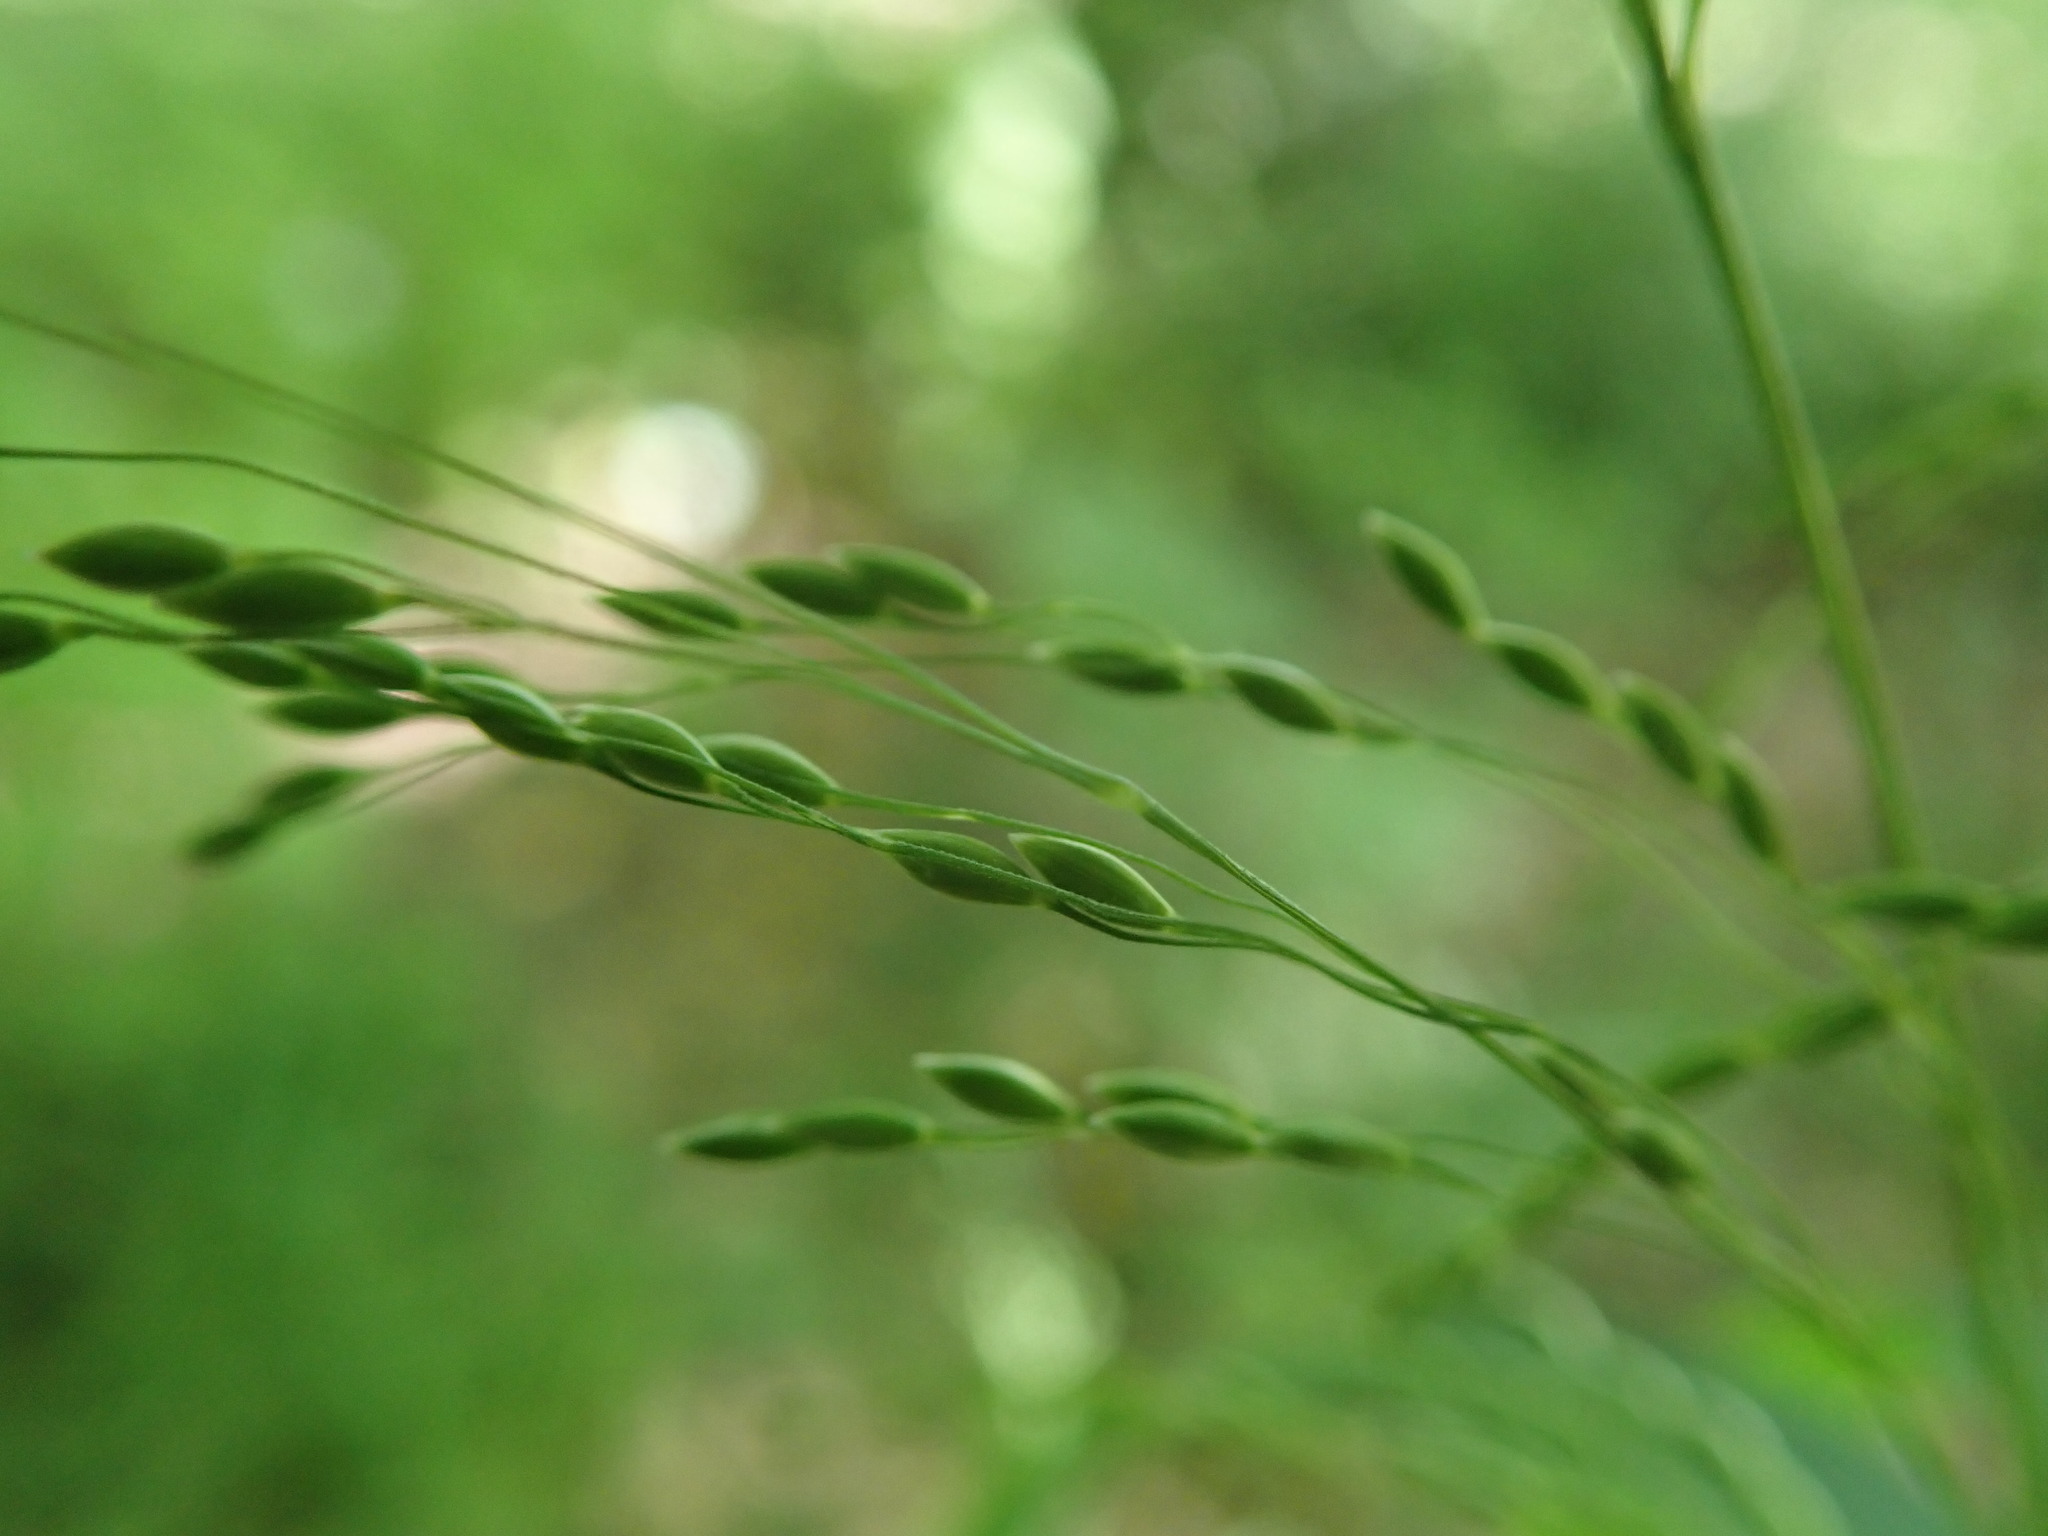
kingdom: Plantae
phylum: Tracheophyta
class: Liliopsida
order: Poales
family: Poaceae
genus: Milium
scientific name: Milium effusum
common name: Wood millet
